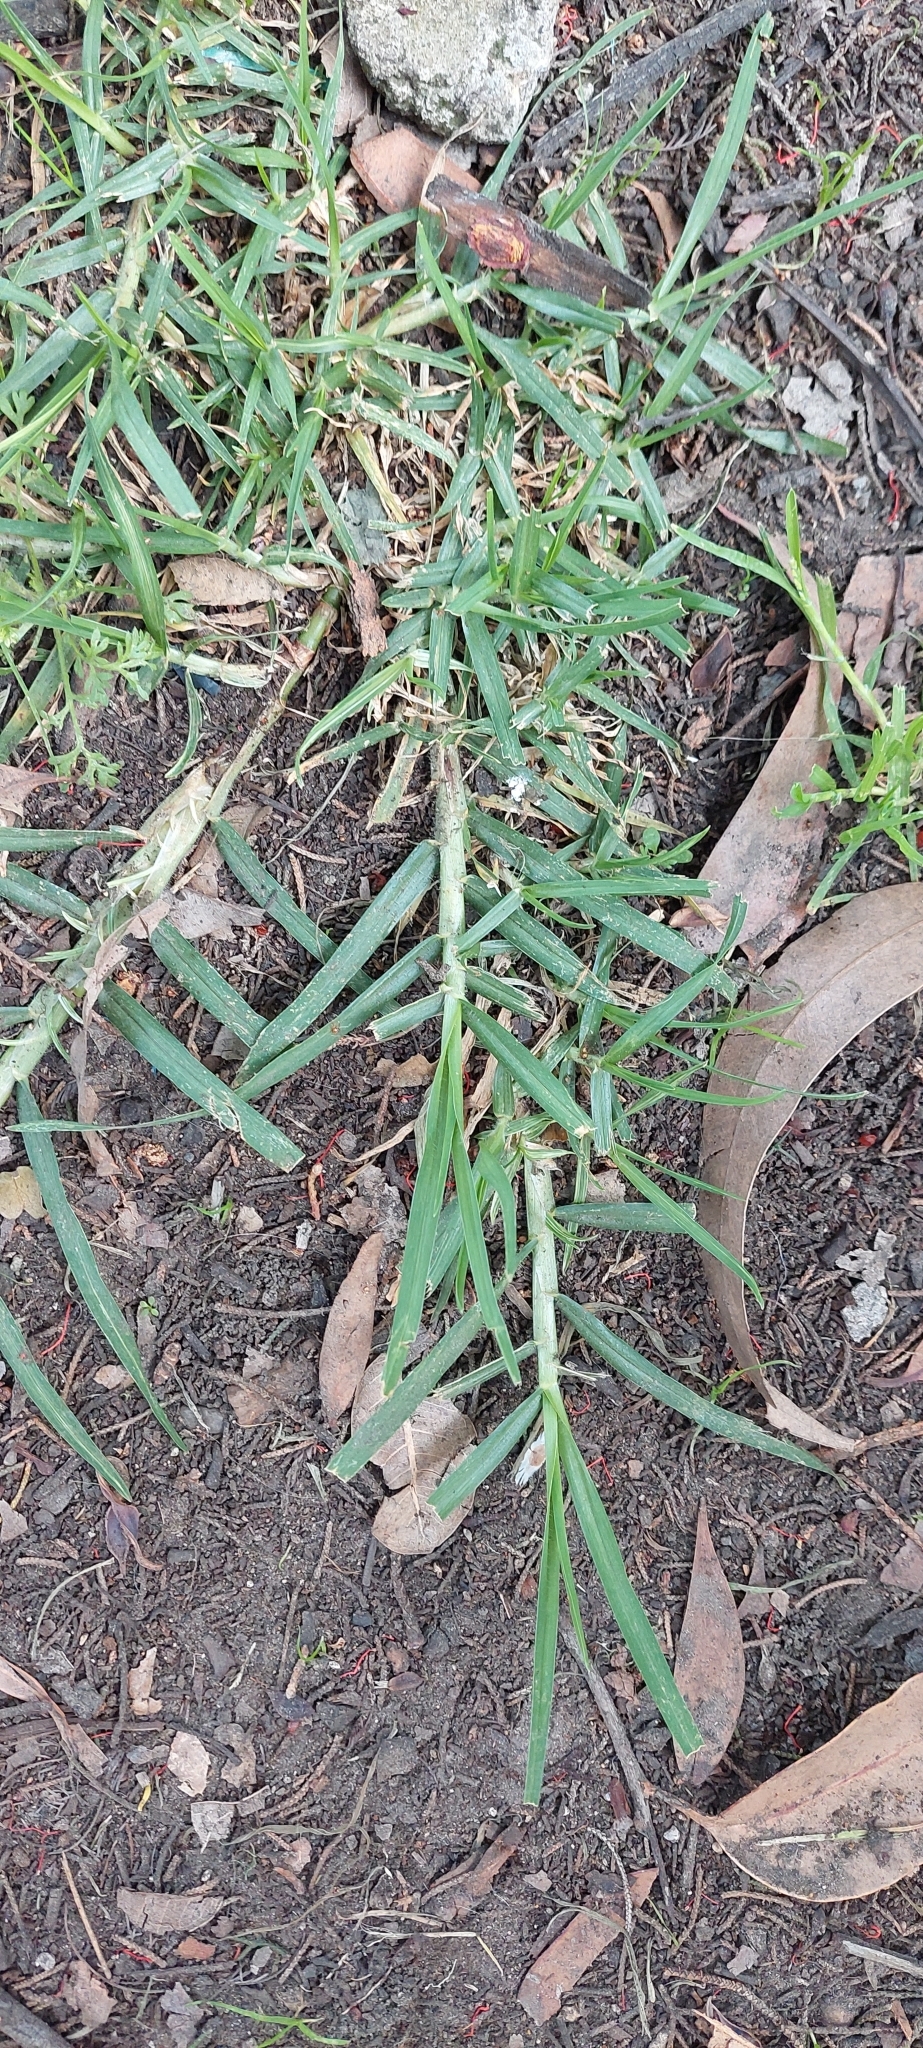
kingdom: Plantae
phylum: Tracheophyta
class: Liliopsida
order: Poales
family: Poaceae
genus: Cenchrus
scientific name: Cenchrus clandestinus
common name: Kikuyugrass
